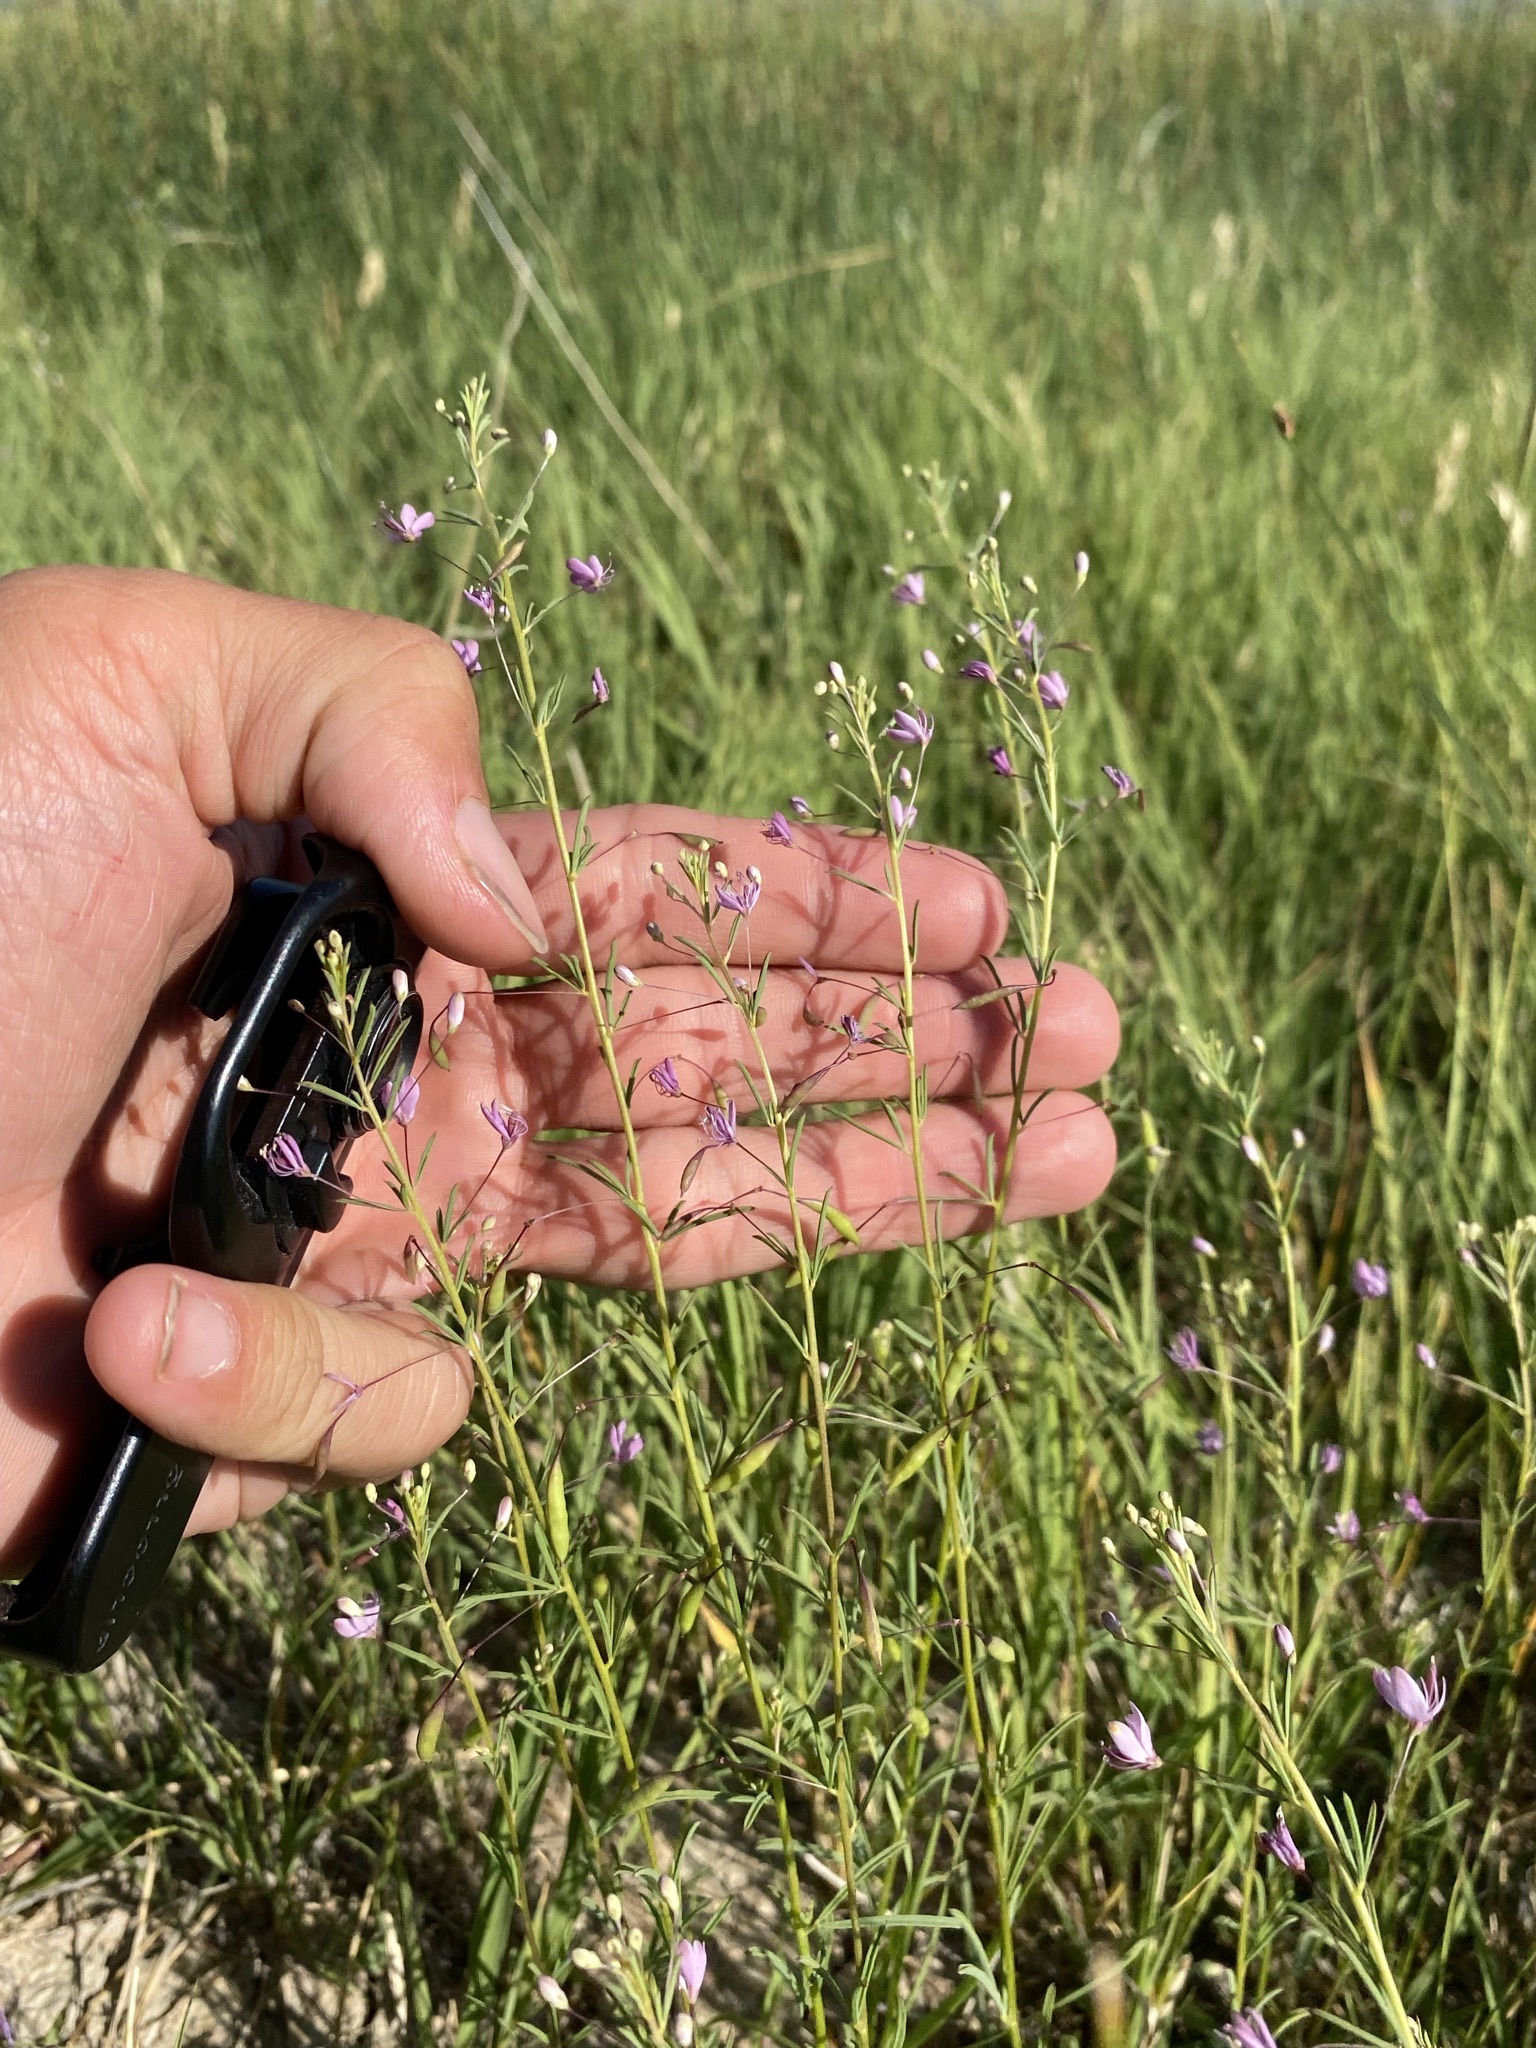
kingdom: Plantae
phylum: Tracheophyta
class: Magnoliopsida
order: Brassicales
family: Cleomaceae
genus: Cleomella
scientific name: Cleomella multicaulis
